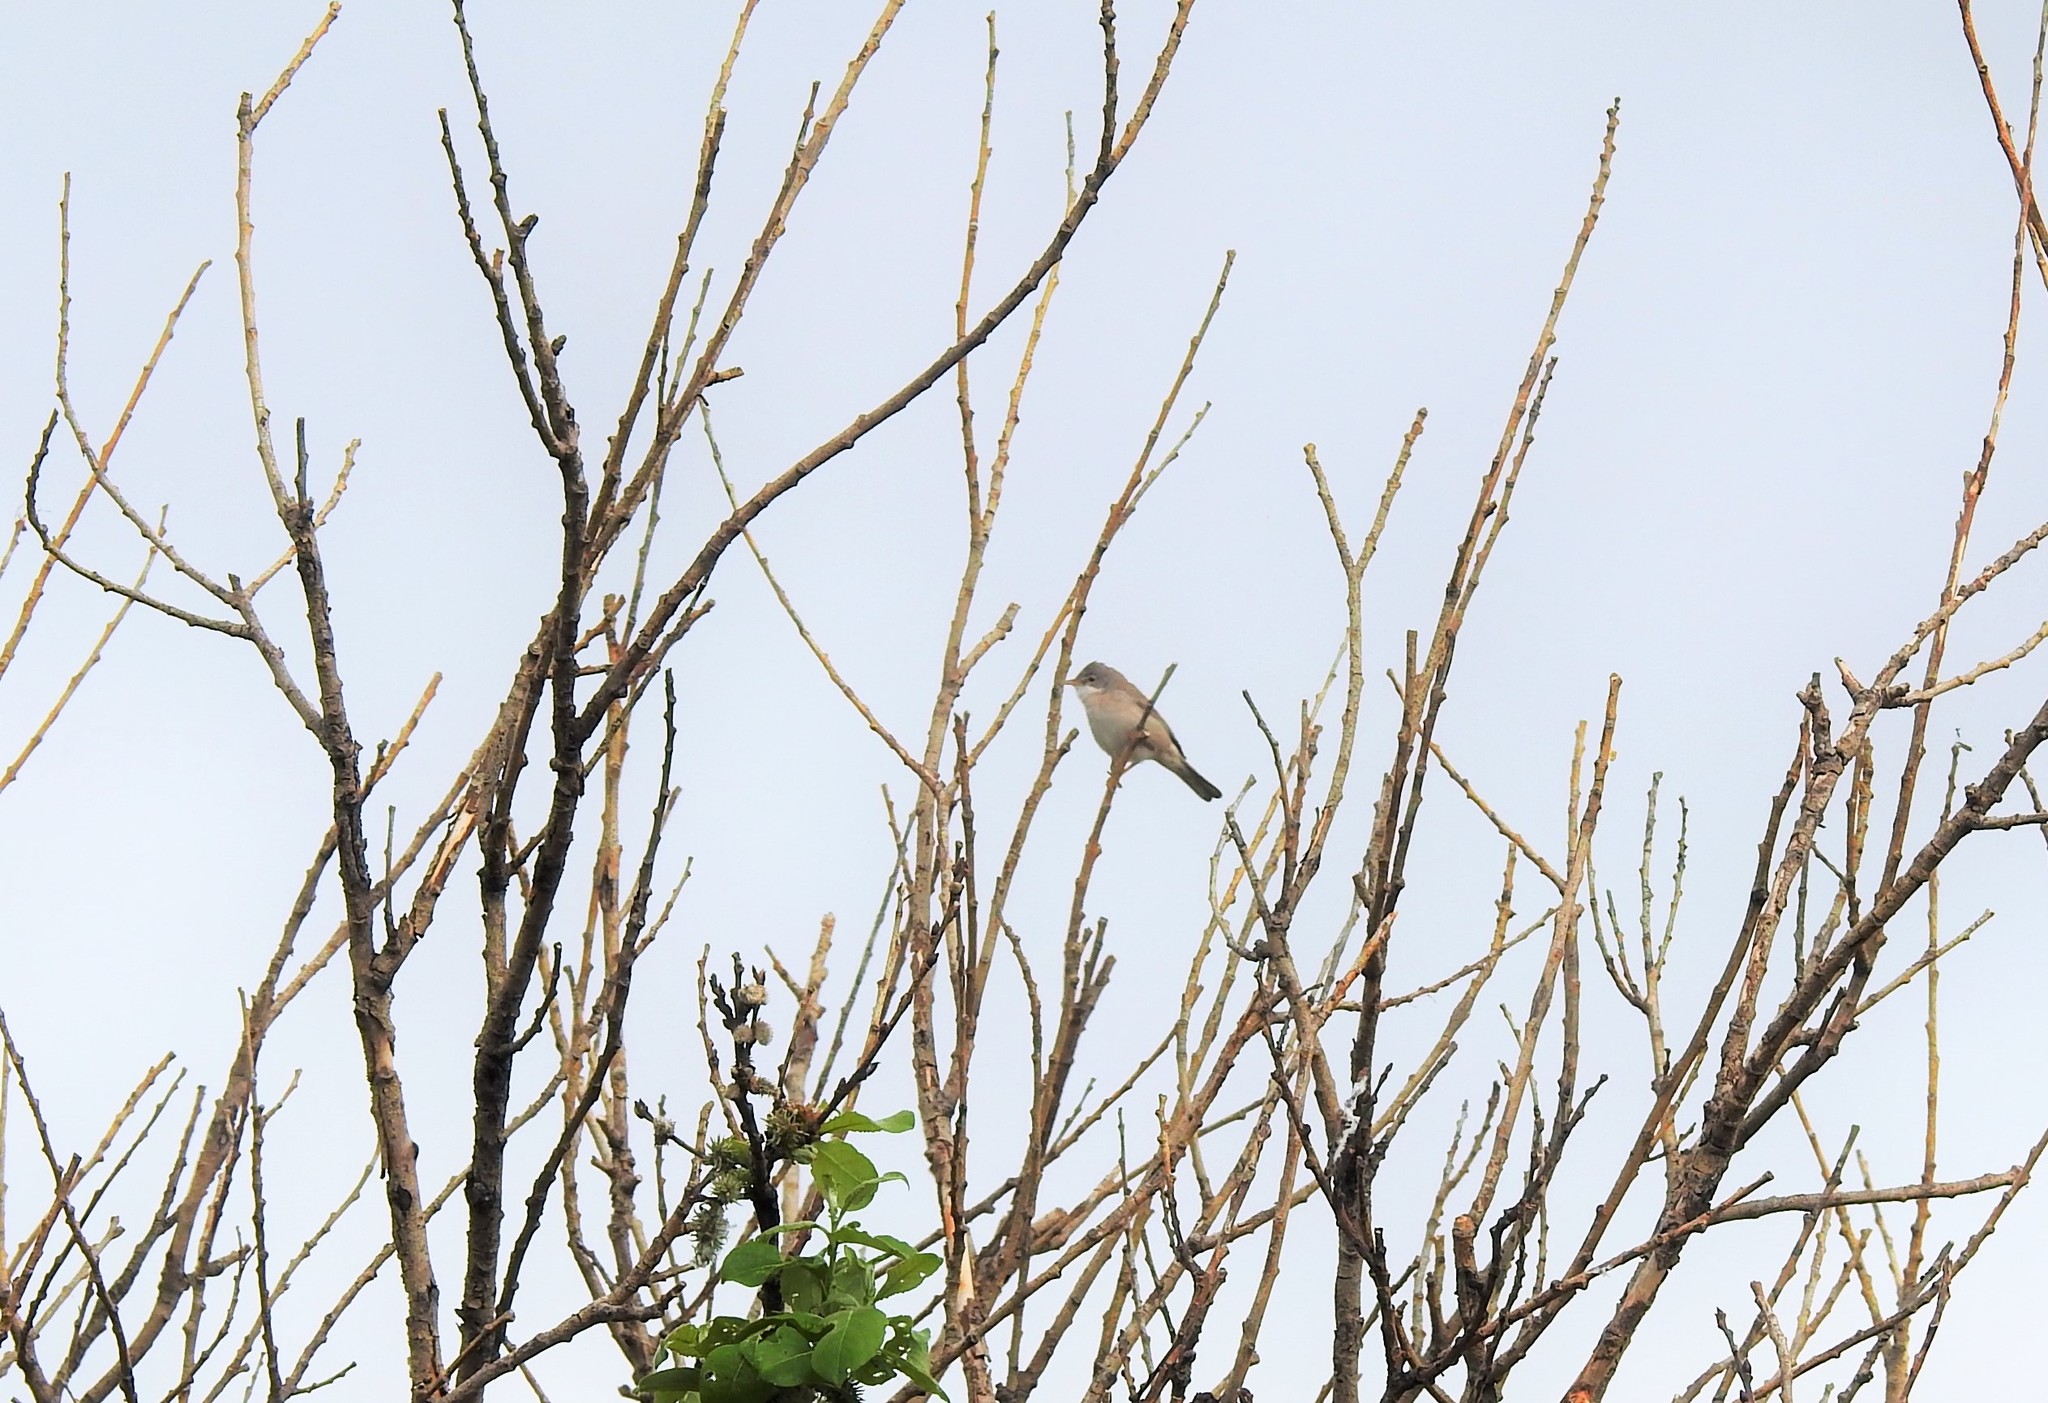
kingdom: Animalia
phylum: Chordata
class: Aves
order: Passeriformes
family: Sylviidae
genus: Sylvia
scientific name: Sylvia communis
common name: Common whitethroat
